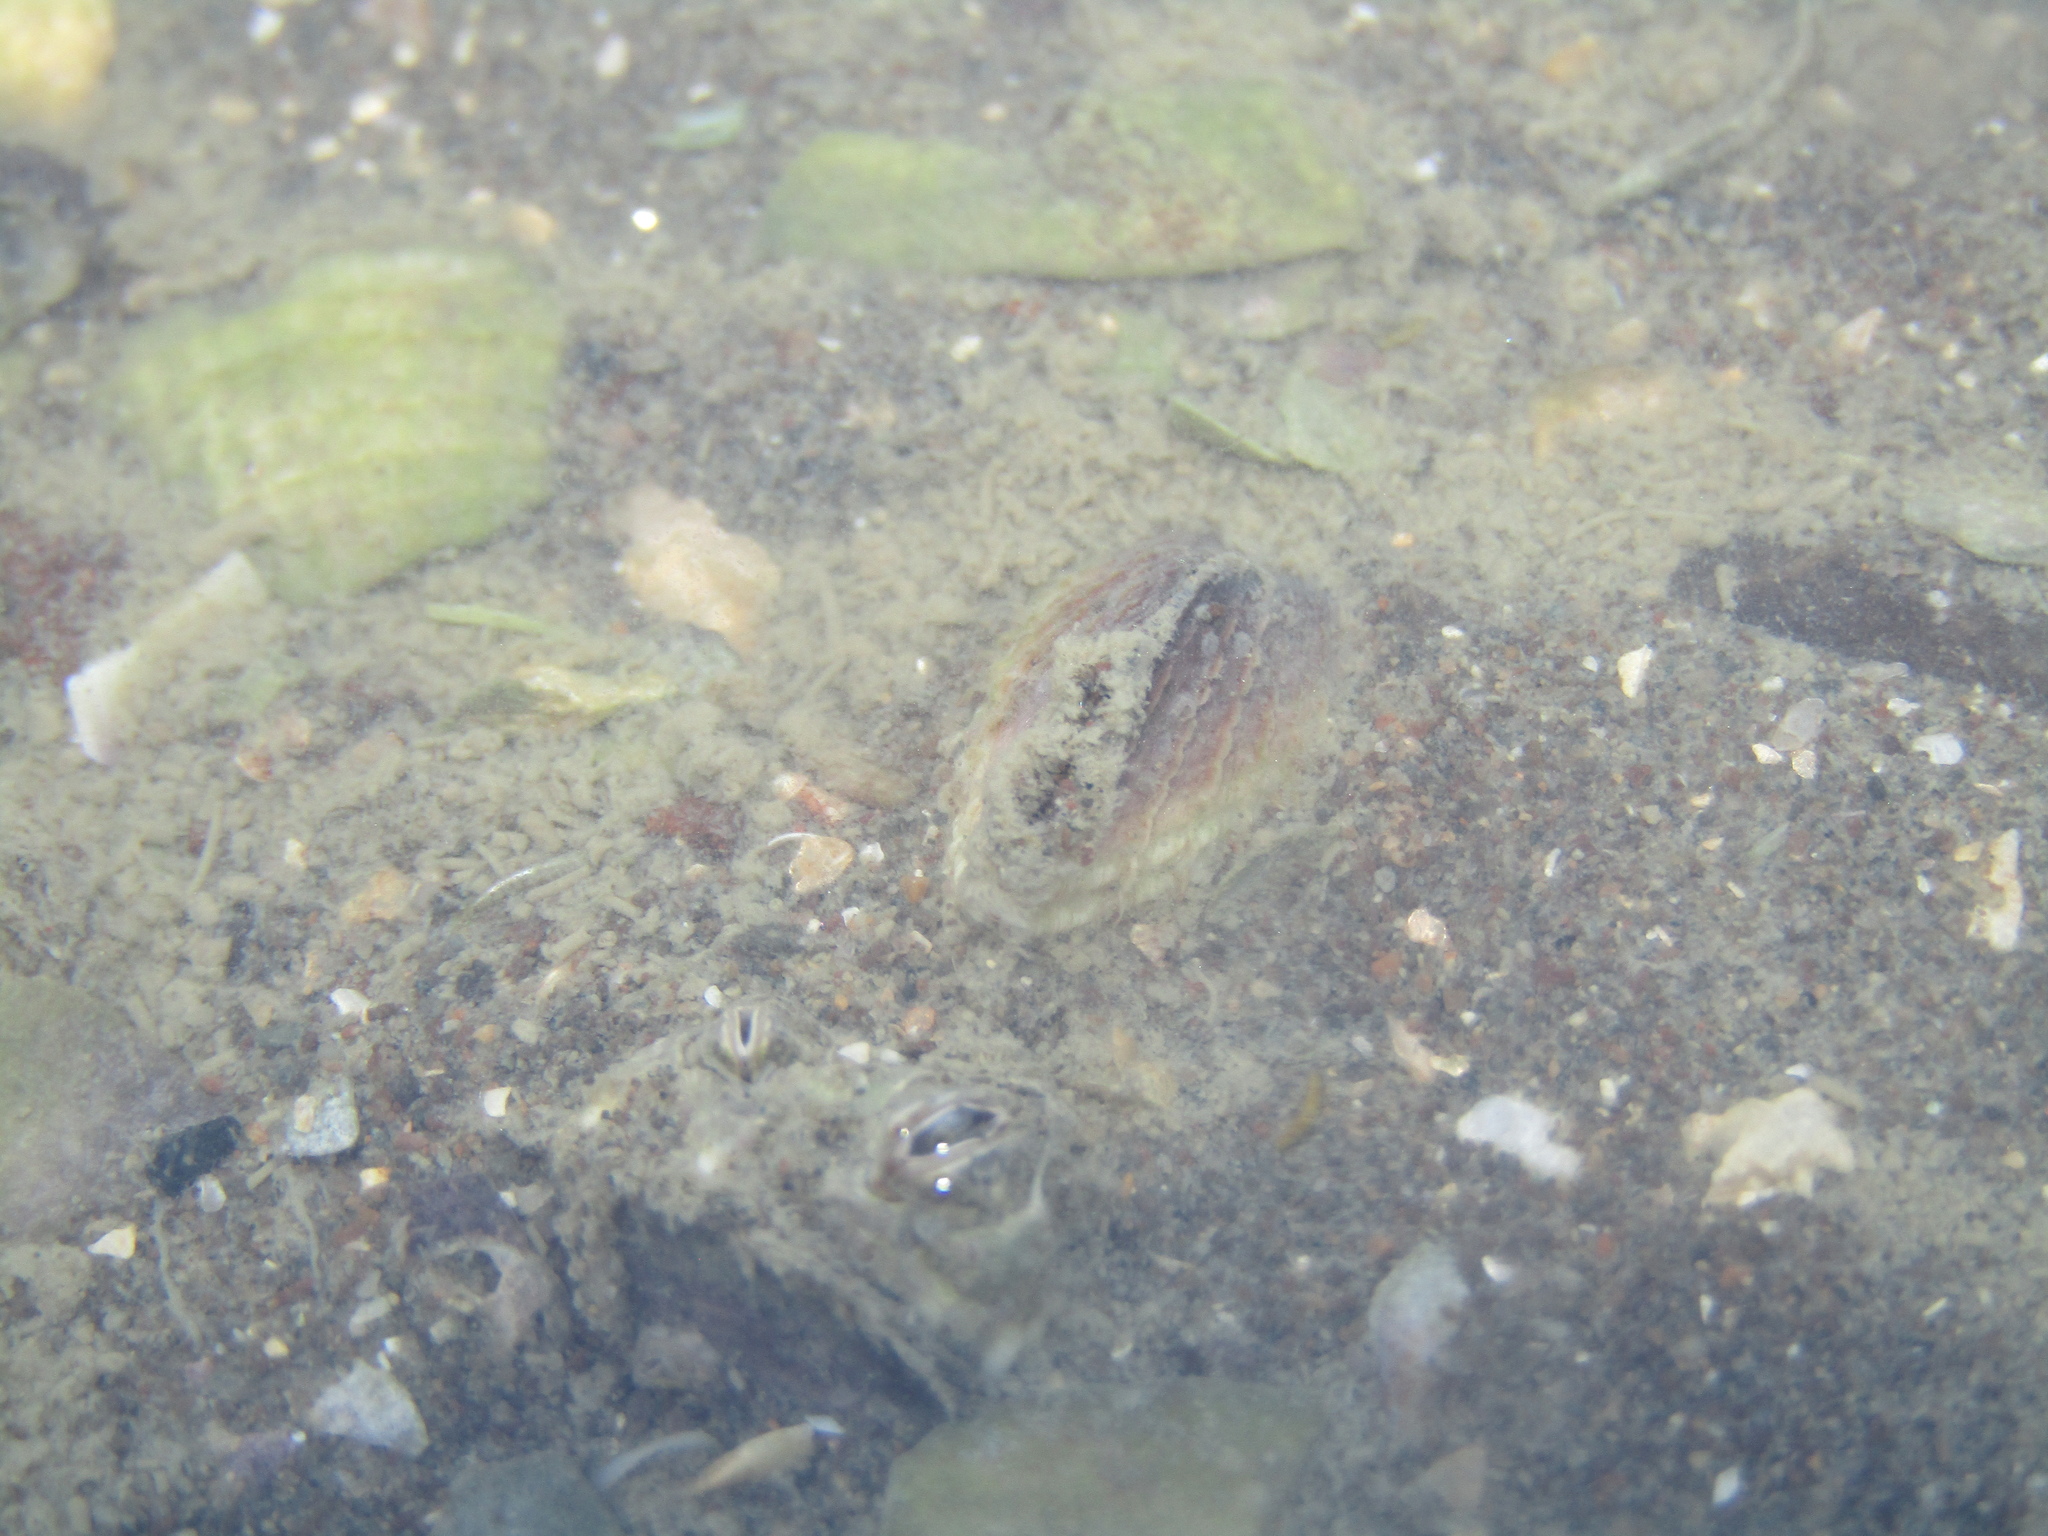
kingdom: Animalia
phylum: Mollusca
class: Bivalvia
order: Venerida
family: Veneridae
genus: Austrovenus
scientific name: Austrovenus stutchburyi
